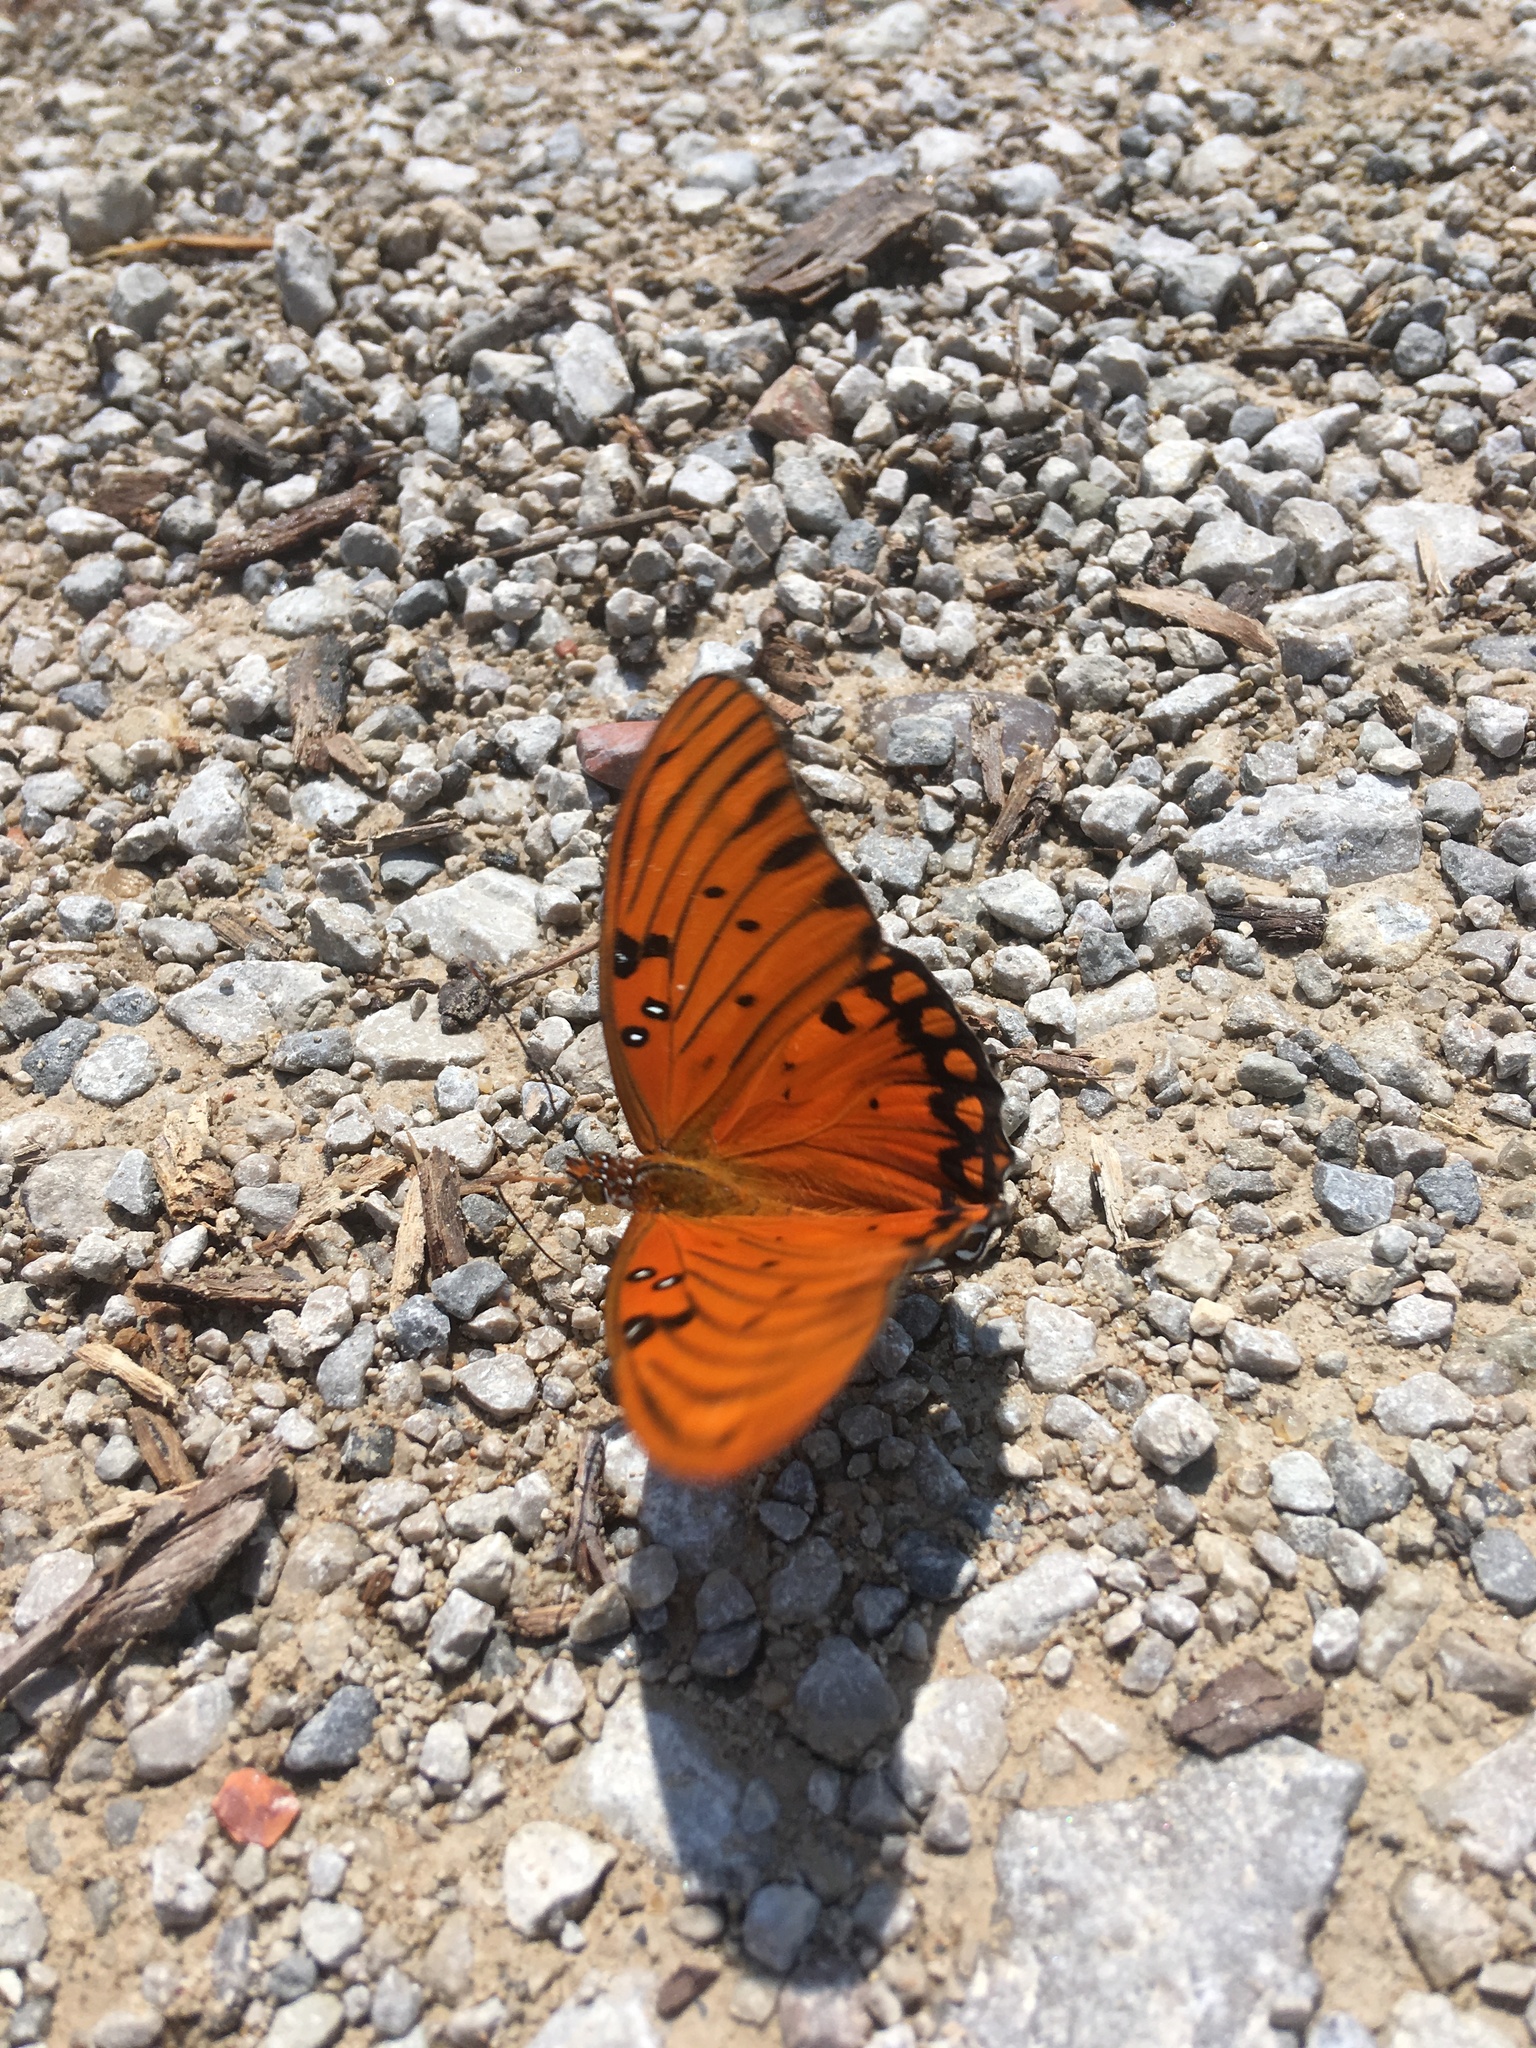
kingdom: Animalia
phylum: Arthropoda
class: Insecta
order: Lepidoptera
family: Nymphalidae
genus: Dione
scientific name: Dione vanillae
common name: Gulf fritillary
